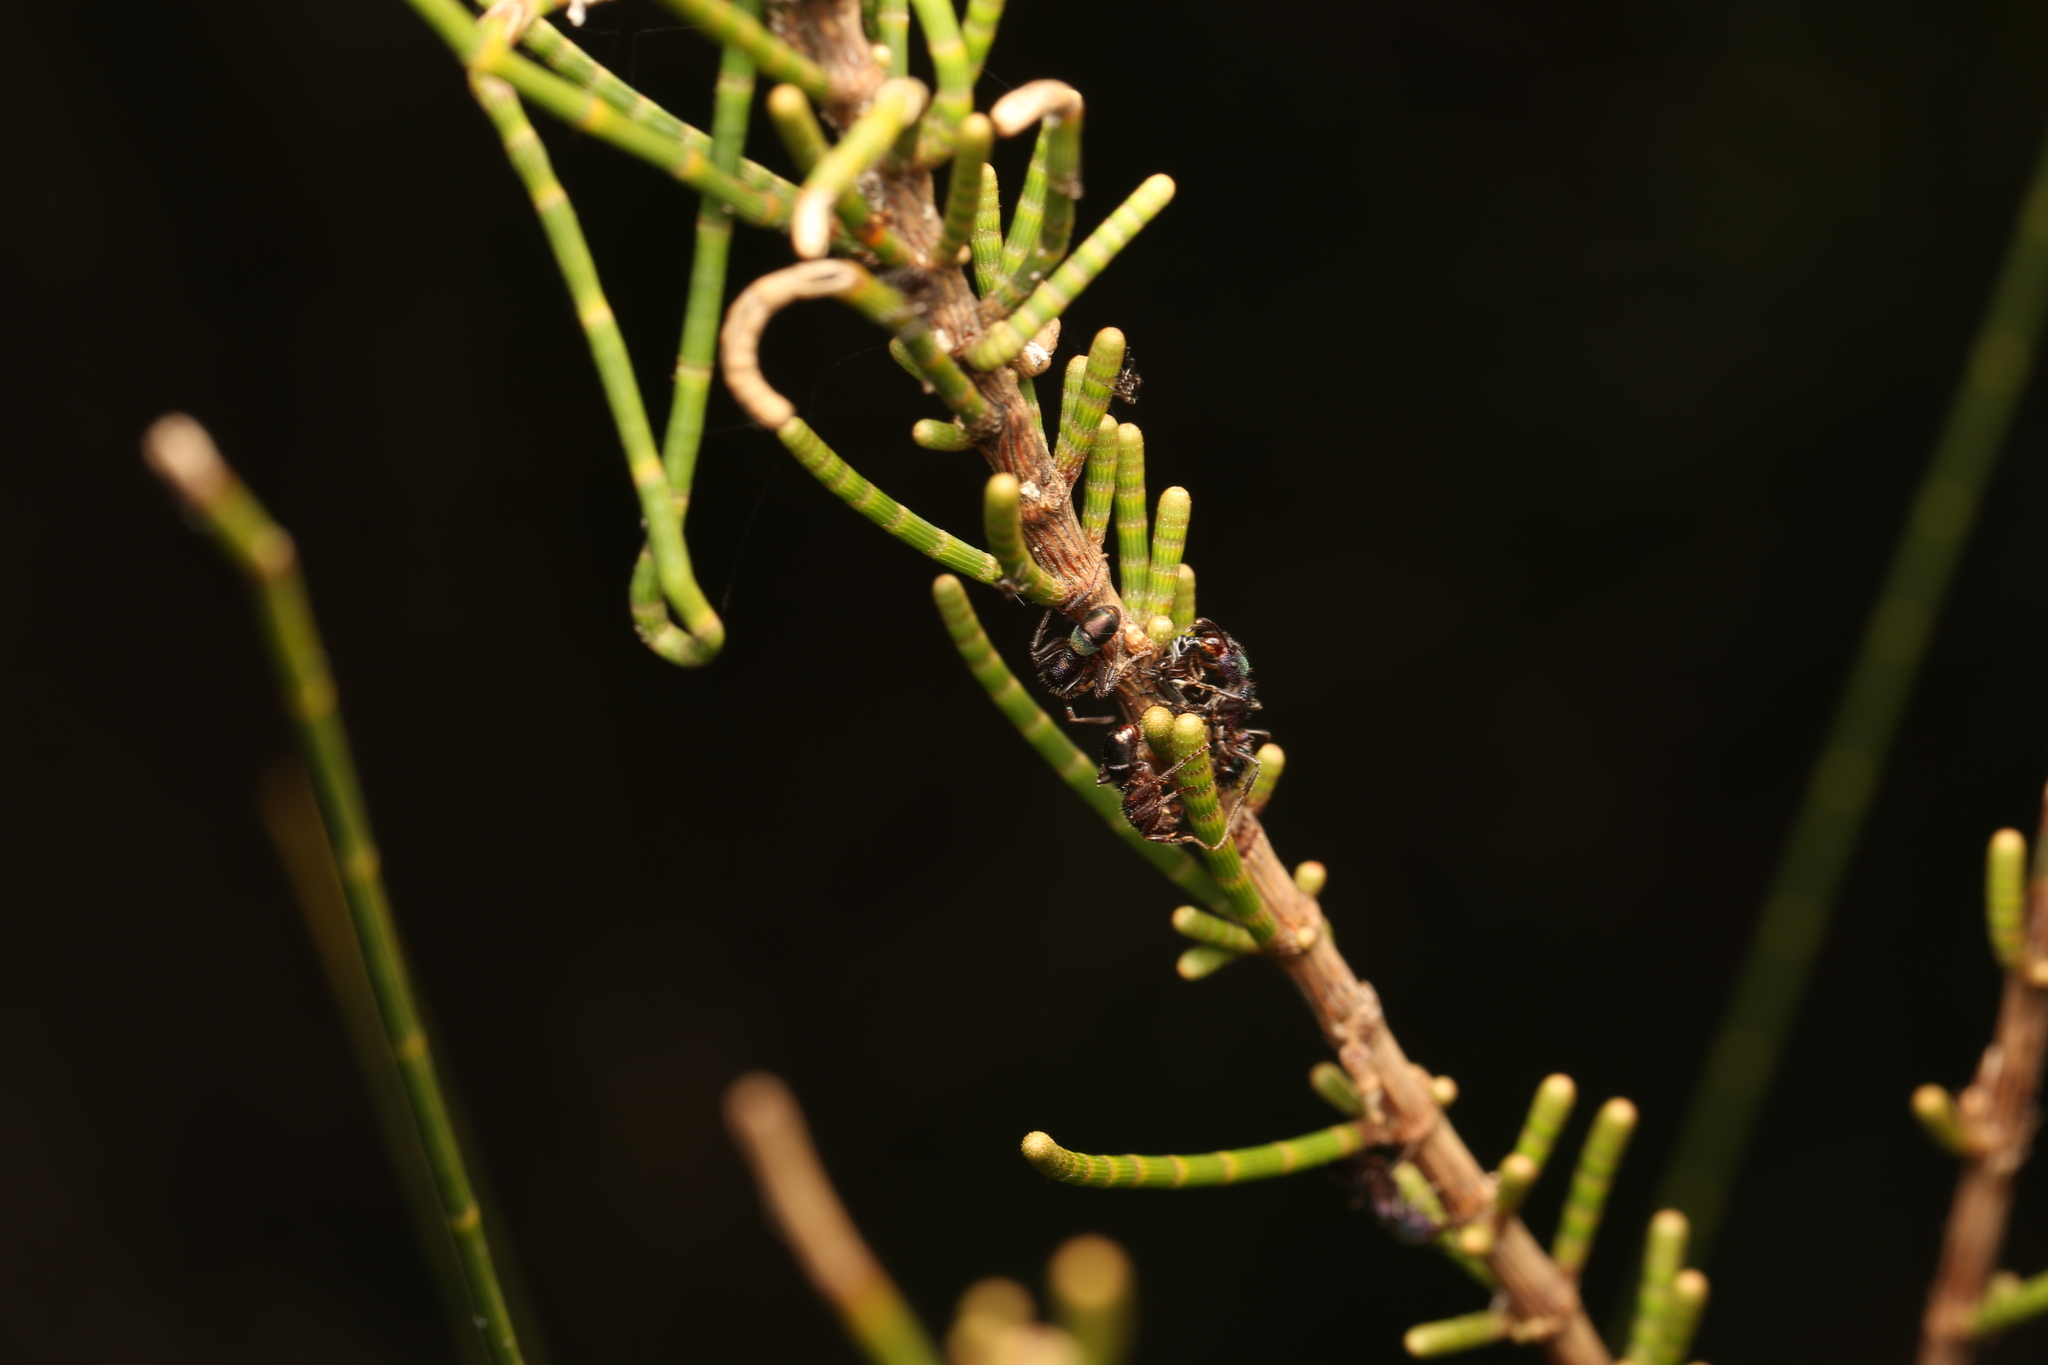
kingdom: Animalia
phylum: Arthropoda
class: Insecta
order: Hymenoptera
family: Formicidae
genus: Rhytidoponera
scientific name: Rhytidoponera metallica
